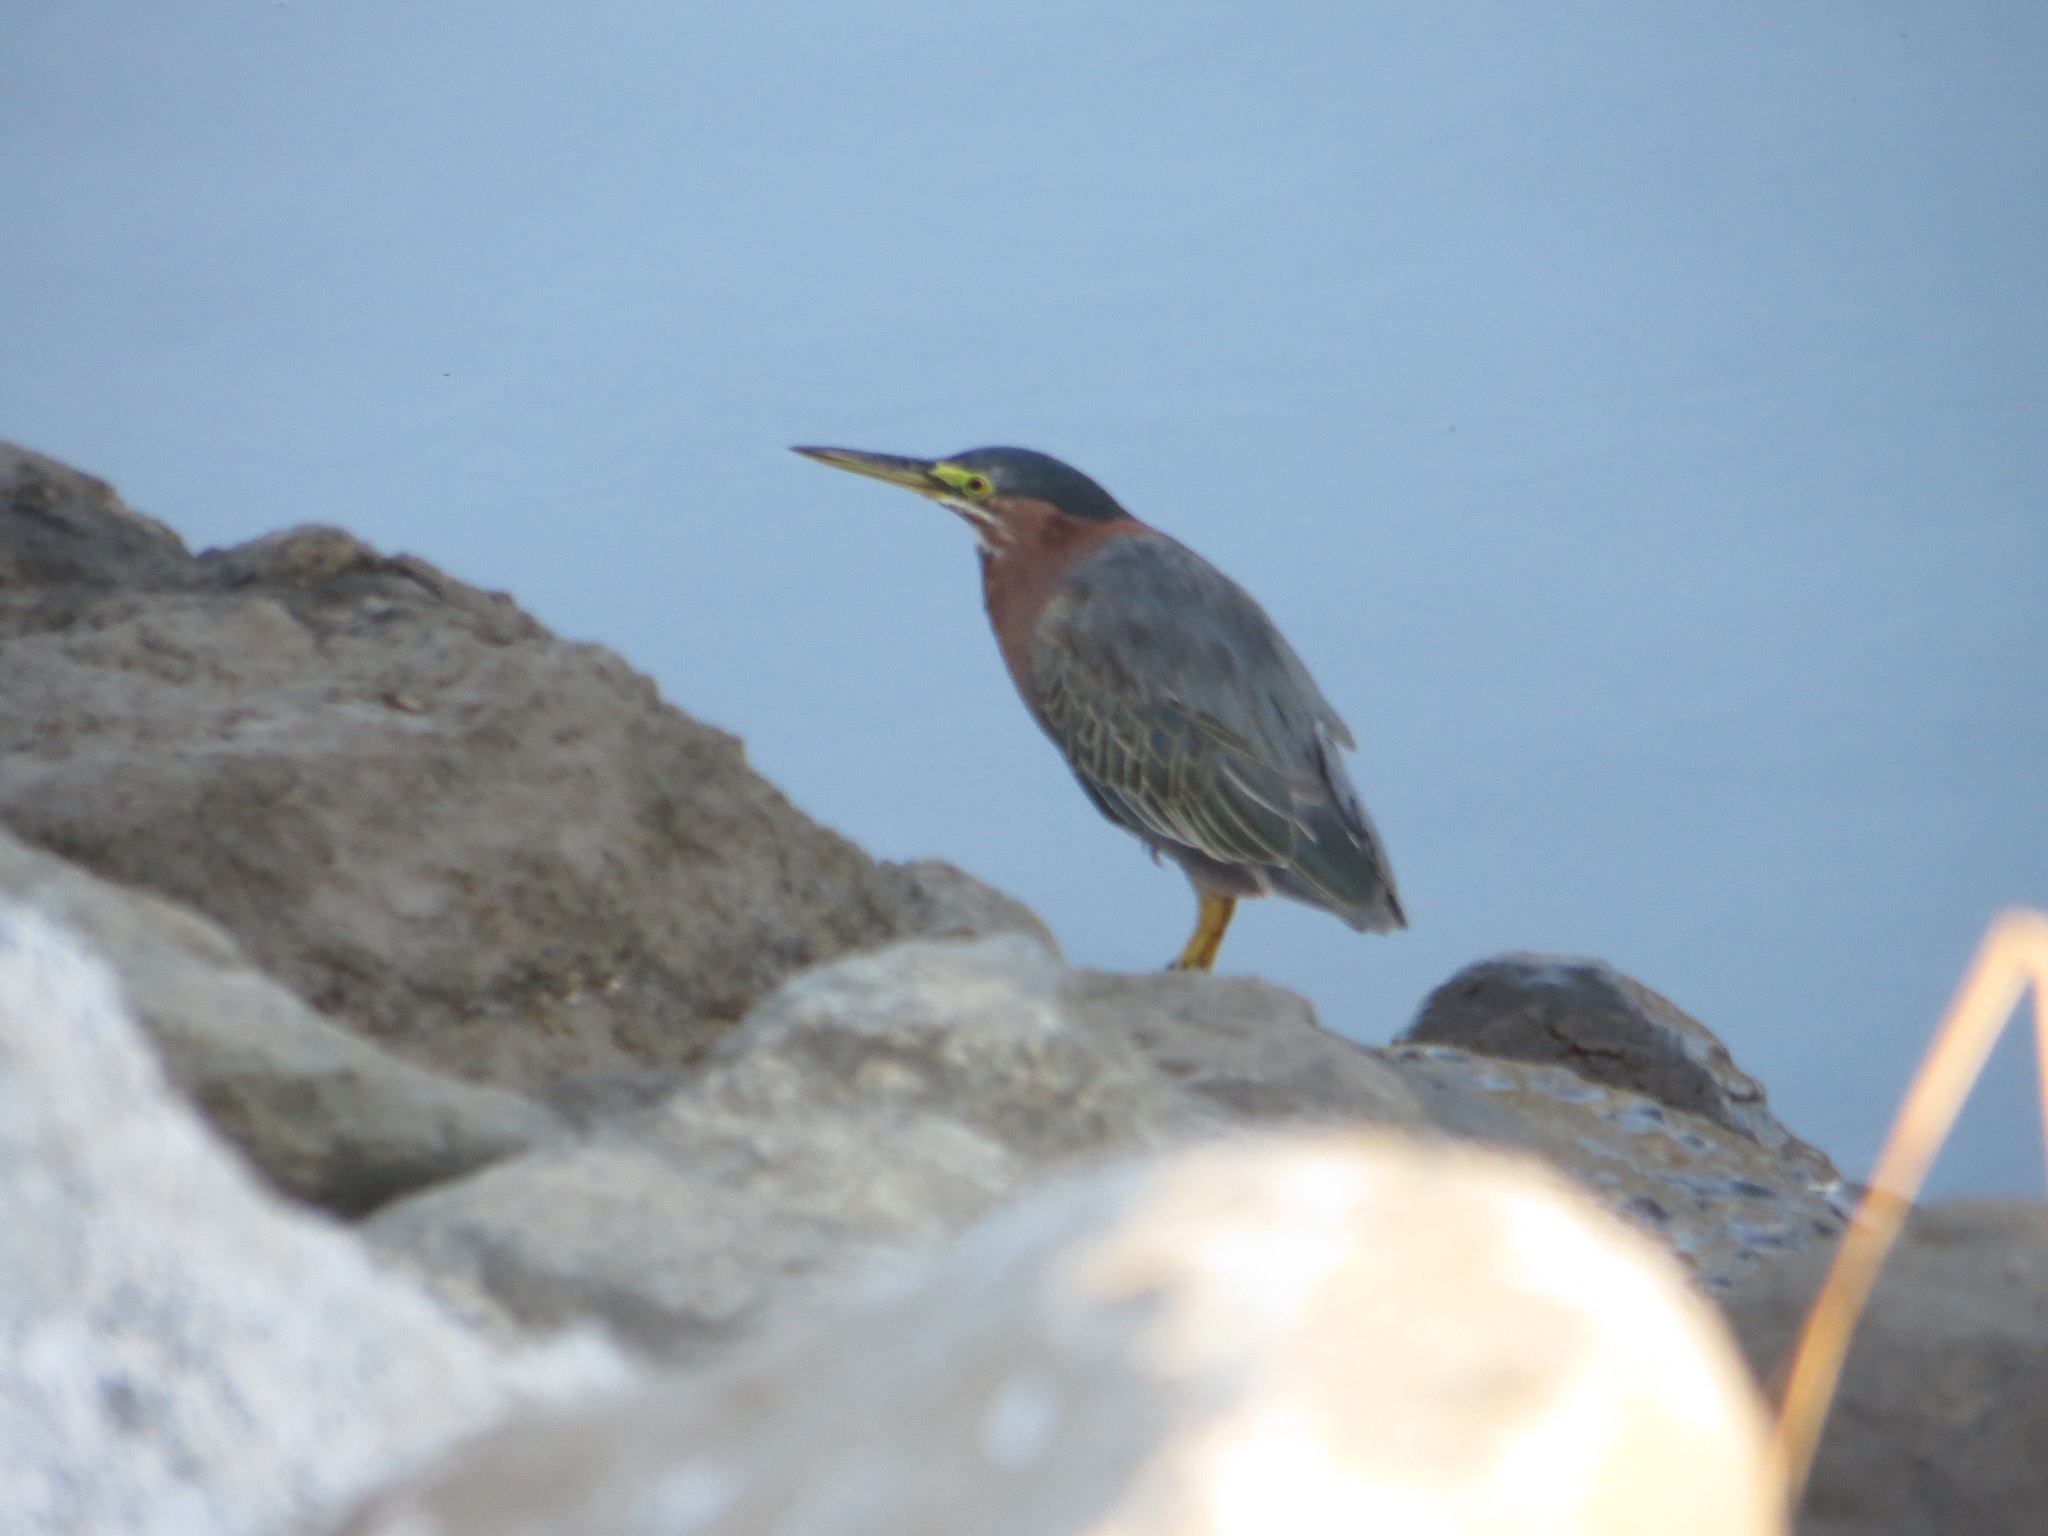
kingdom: Animalia
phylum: Chordata
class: Aves
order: Pelecaniformes
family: Ardeidae
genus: Butorides
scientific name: Butorides virescens
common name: Green heron
